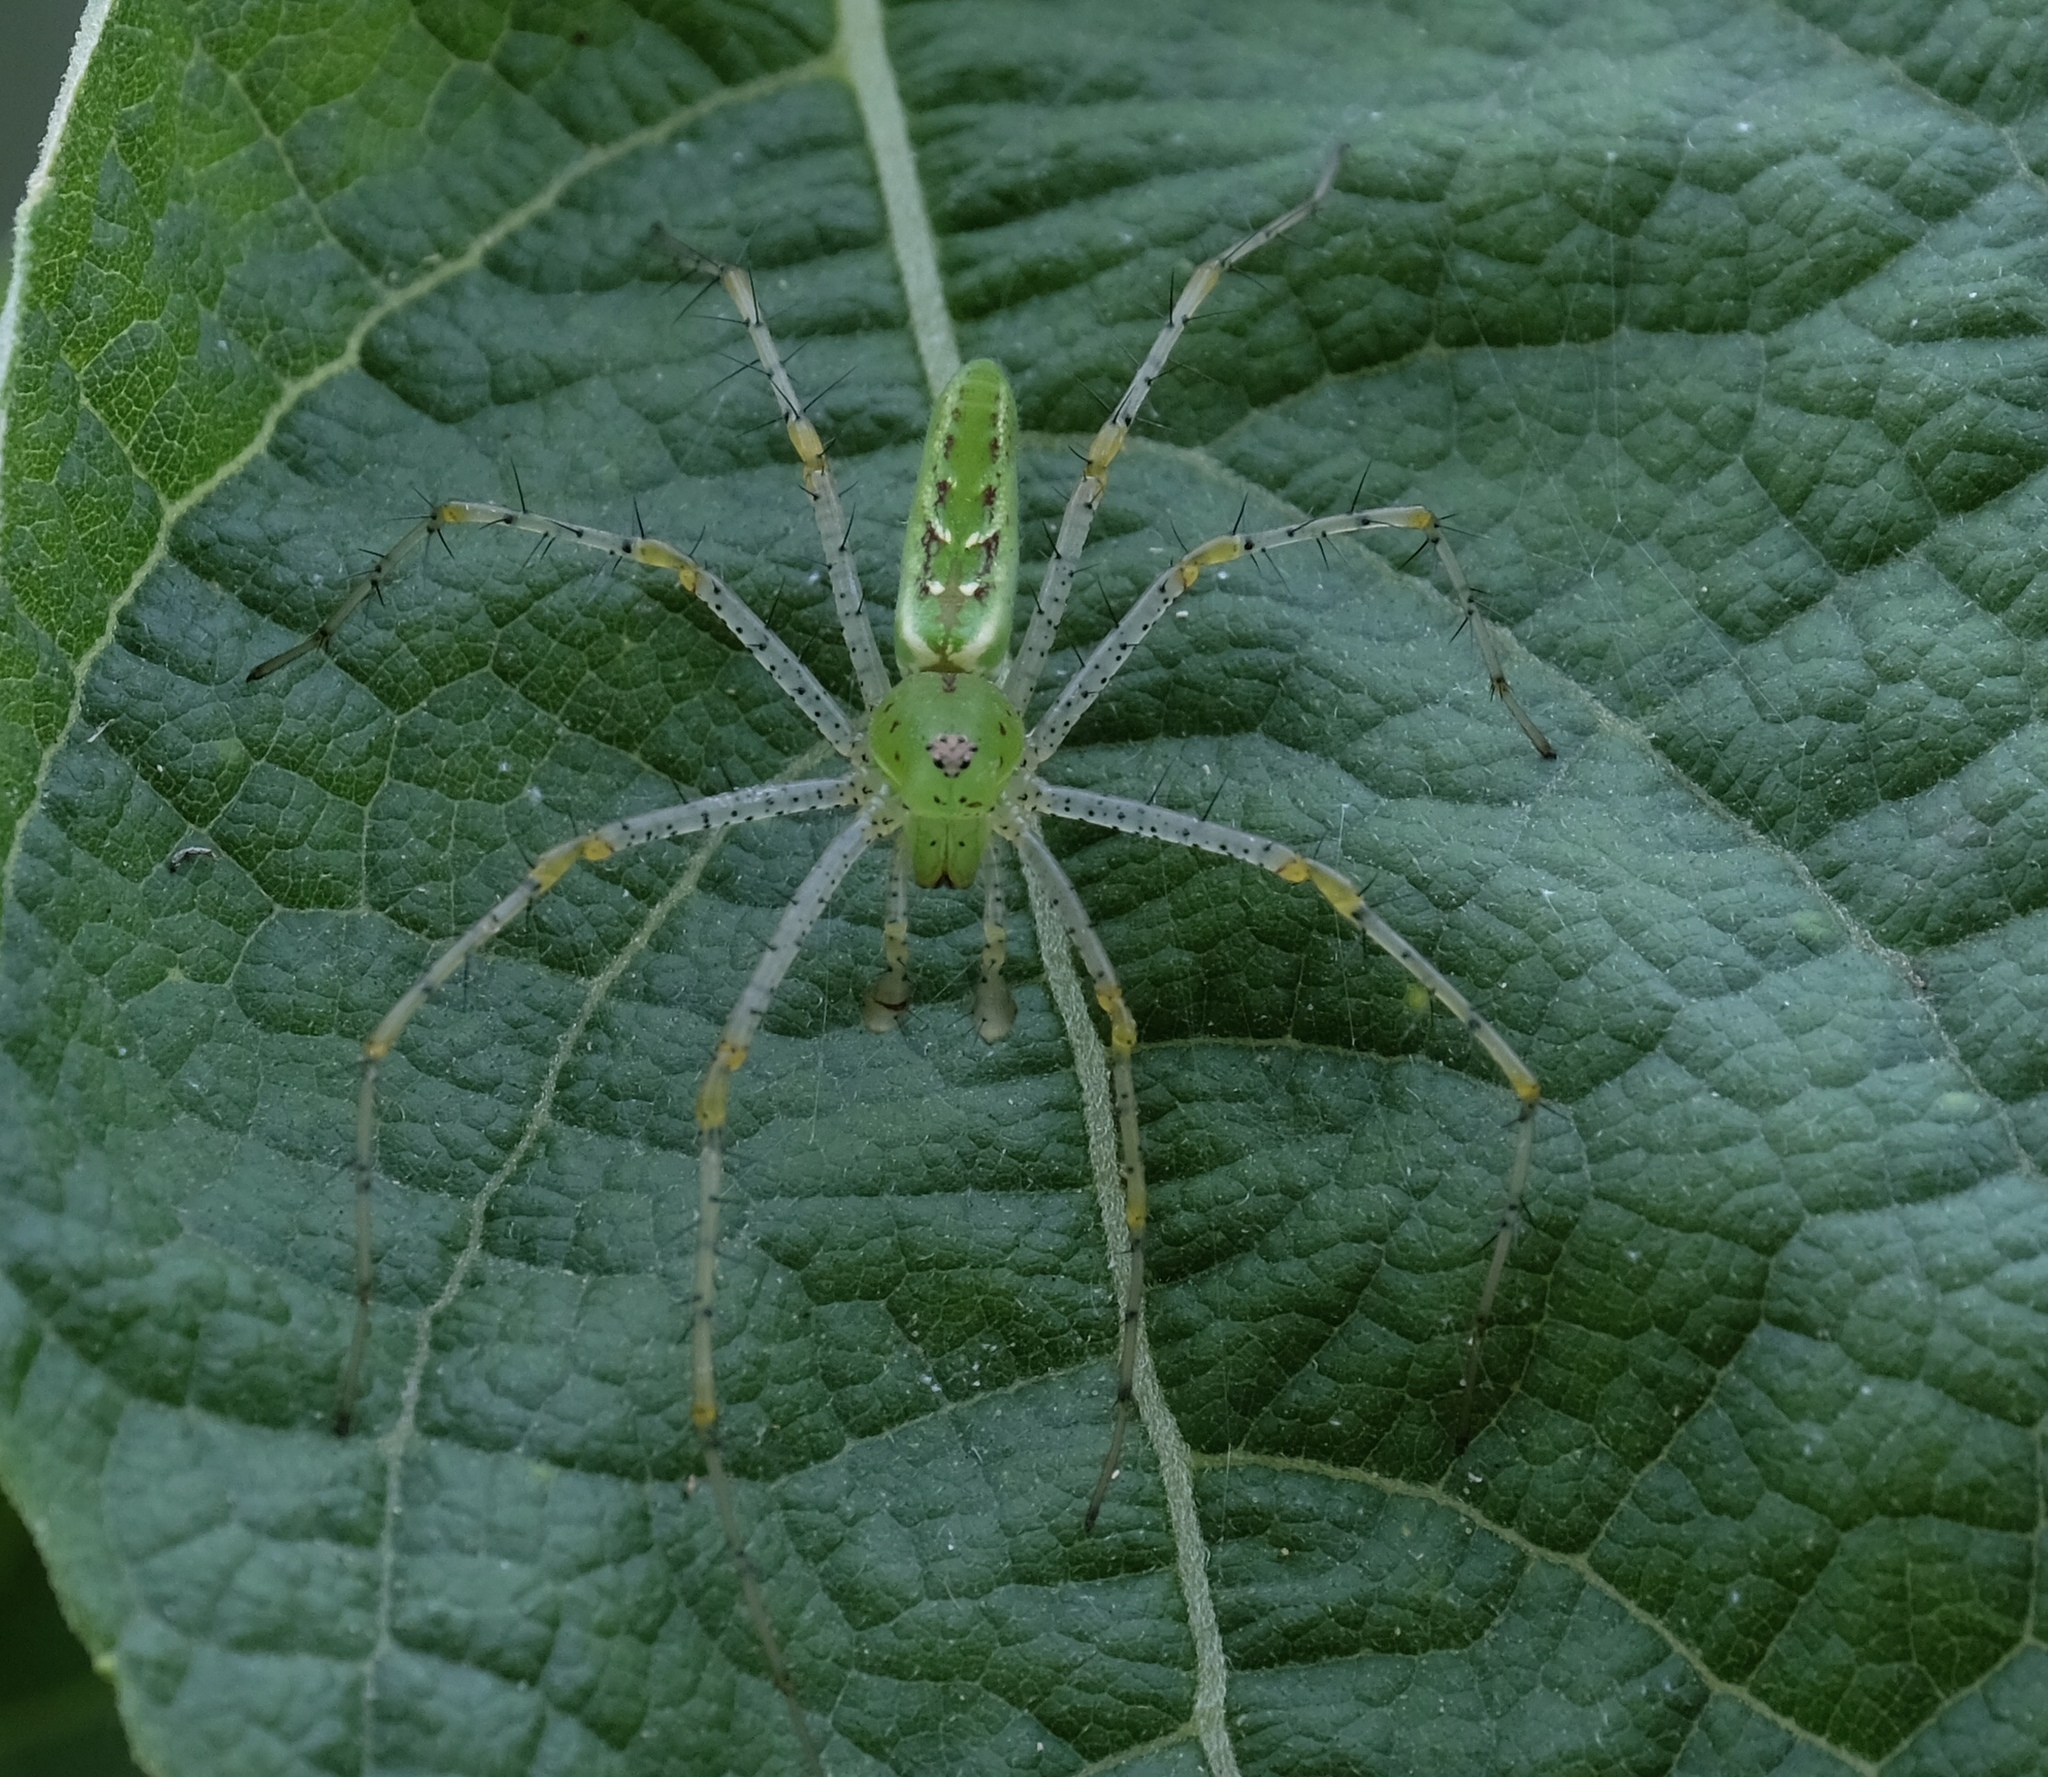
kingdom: Animalia
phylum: Arthropoda
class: Arachnida
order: Araneae
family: Oxyopidae
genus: Peucetia
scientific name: Peucetia viridans
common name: Lynx spiders
